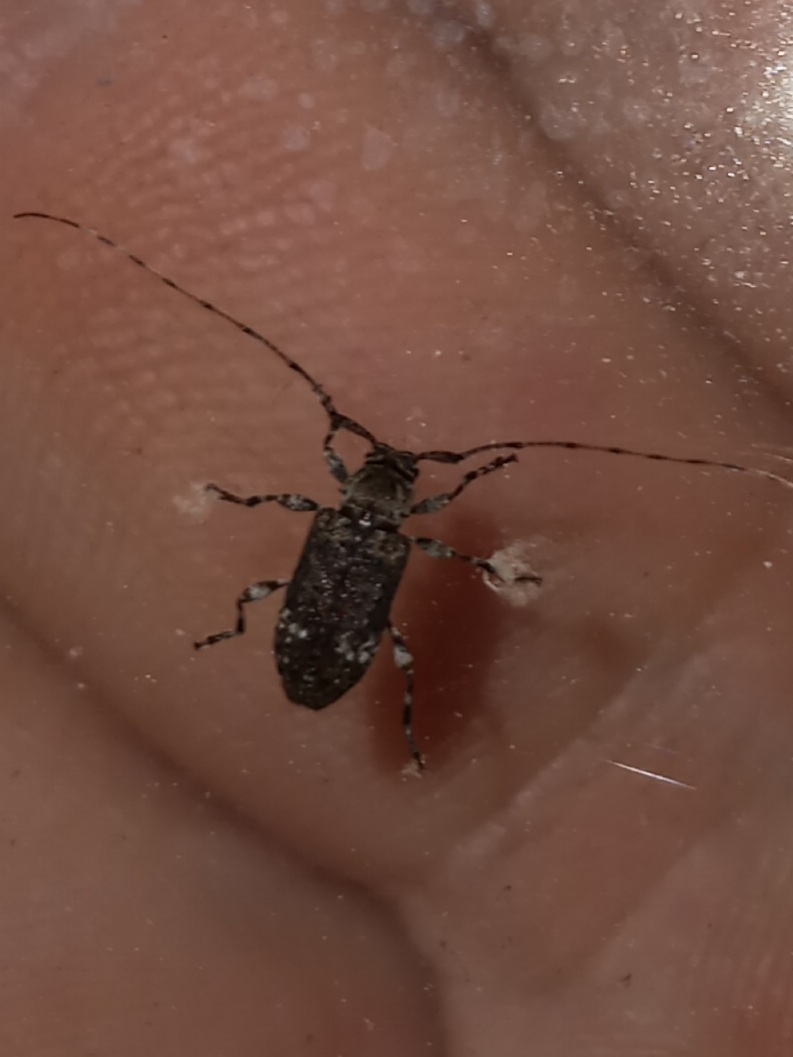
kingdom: Animalia
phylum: Arthropoda
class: Insecta
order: Coleoptera
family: Cerambycidae
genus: Sternidius
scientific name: Sternidius punctatus
